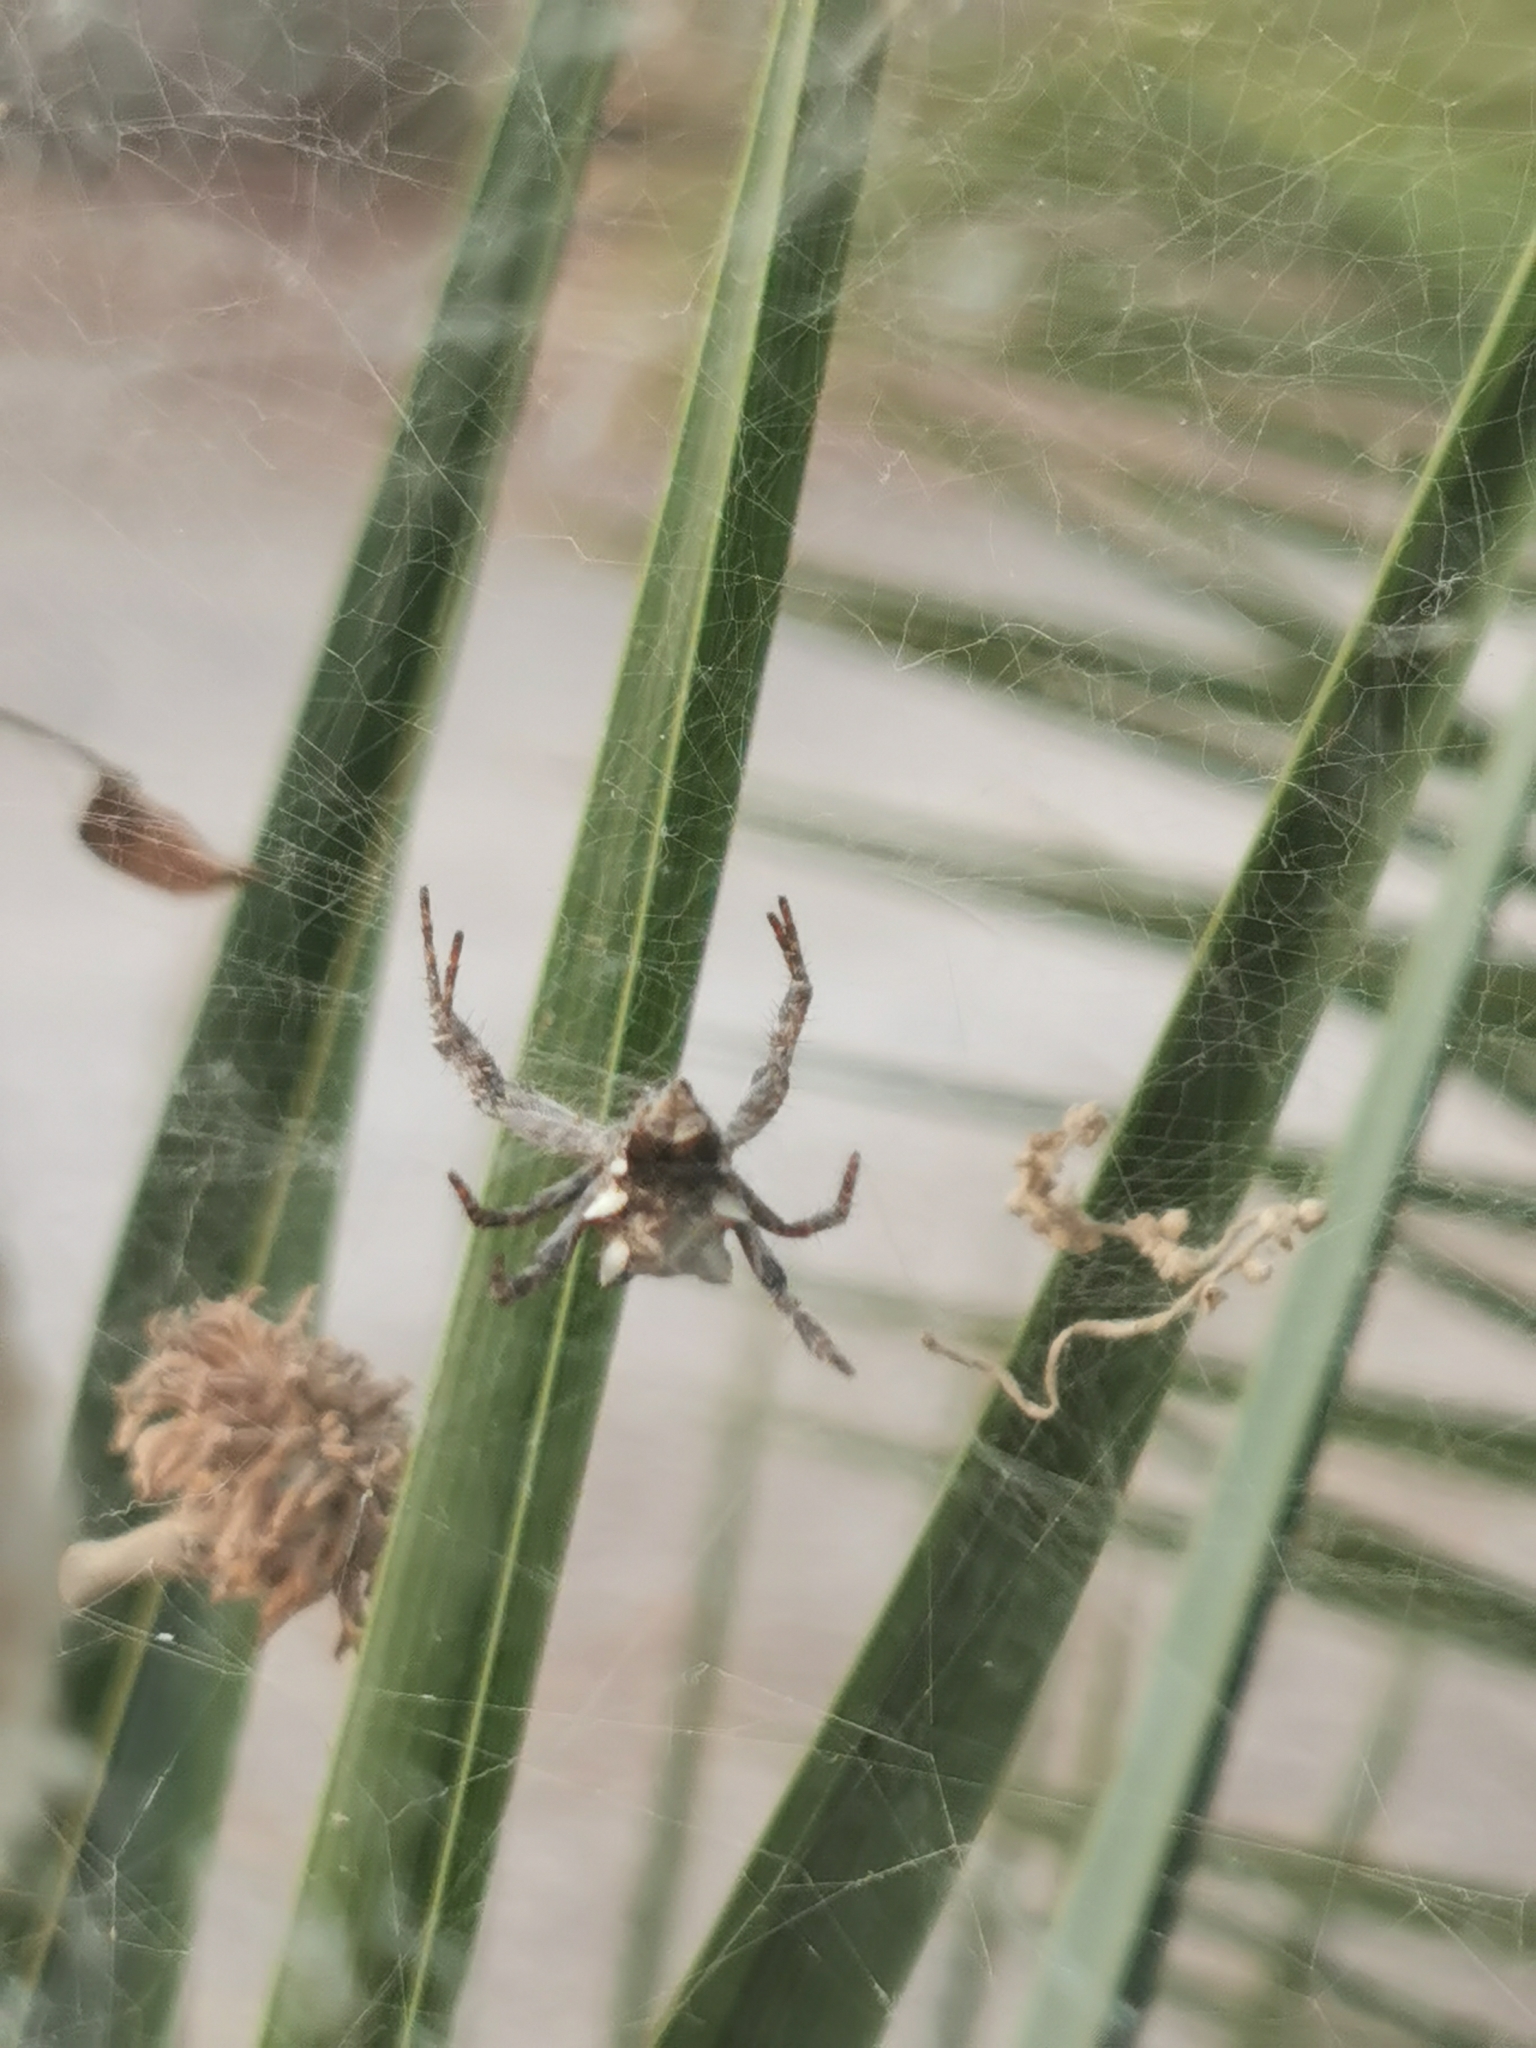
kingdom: Animalia
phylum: Arthropoda
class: Arachnida
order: Araneae
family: Araneidae
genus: Cyrtophora
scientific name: Cyrtophora citricola
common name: Orb weavers
